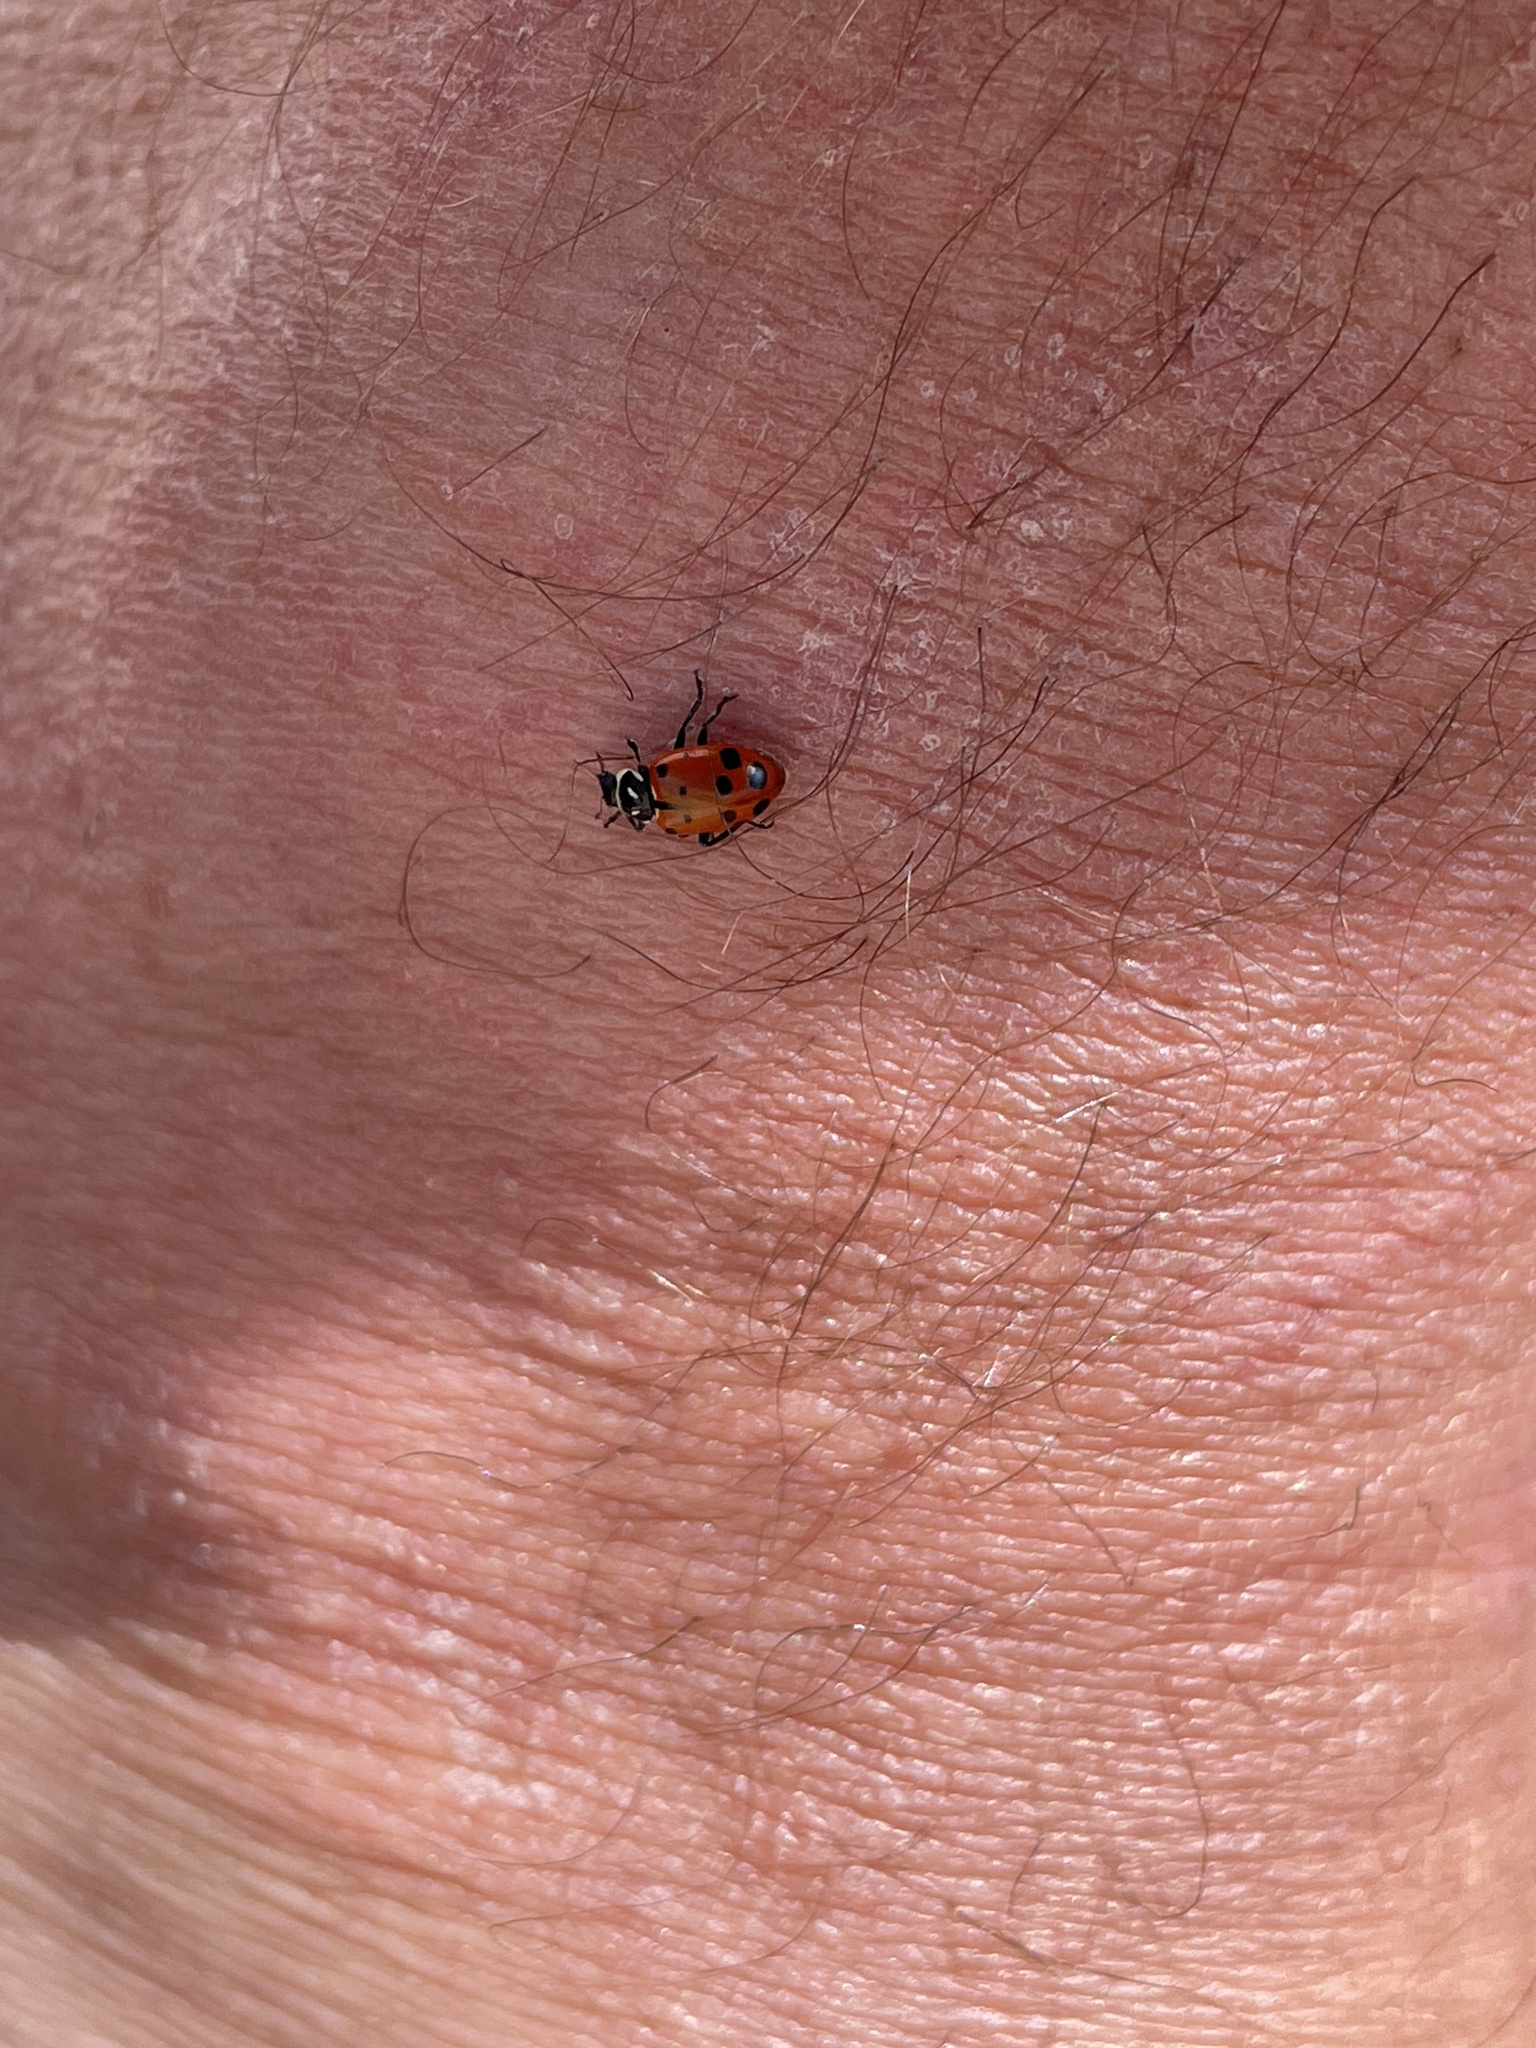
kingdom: Animalia
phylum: Arthropoda
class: Insecta
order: Coleoptera
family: Coccinellidae
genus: Hippodamia
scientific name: Hippodamia convergens
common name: Convergent lady beetle
